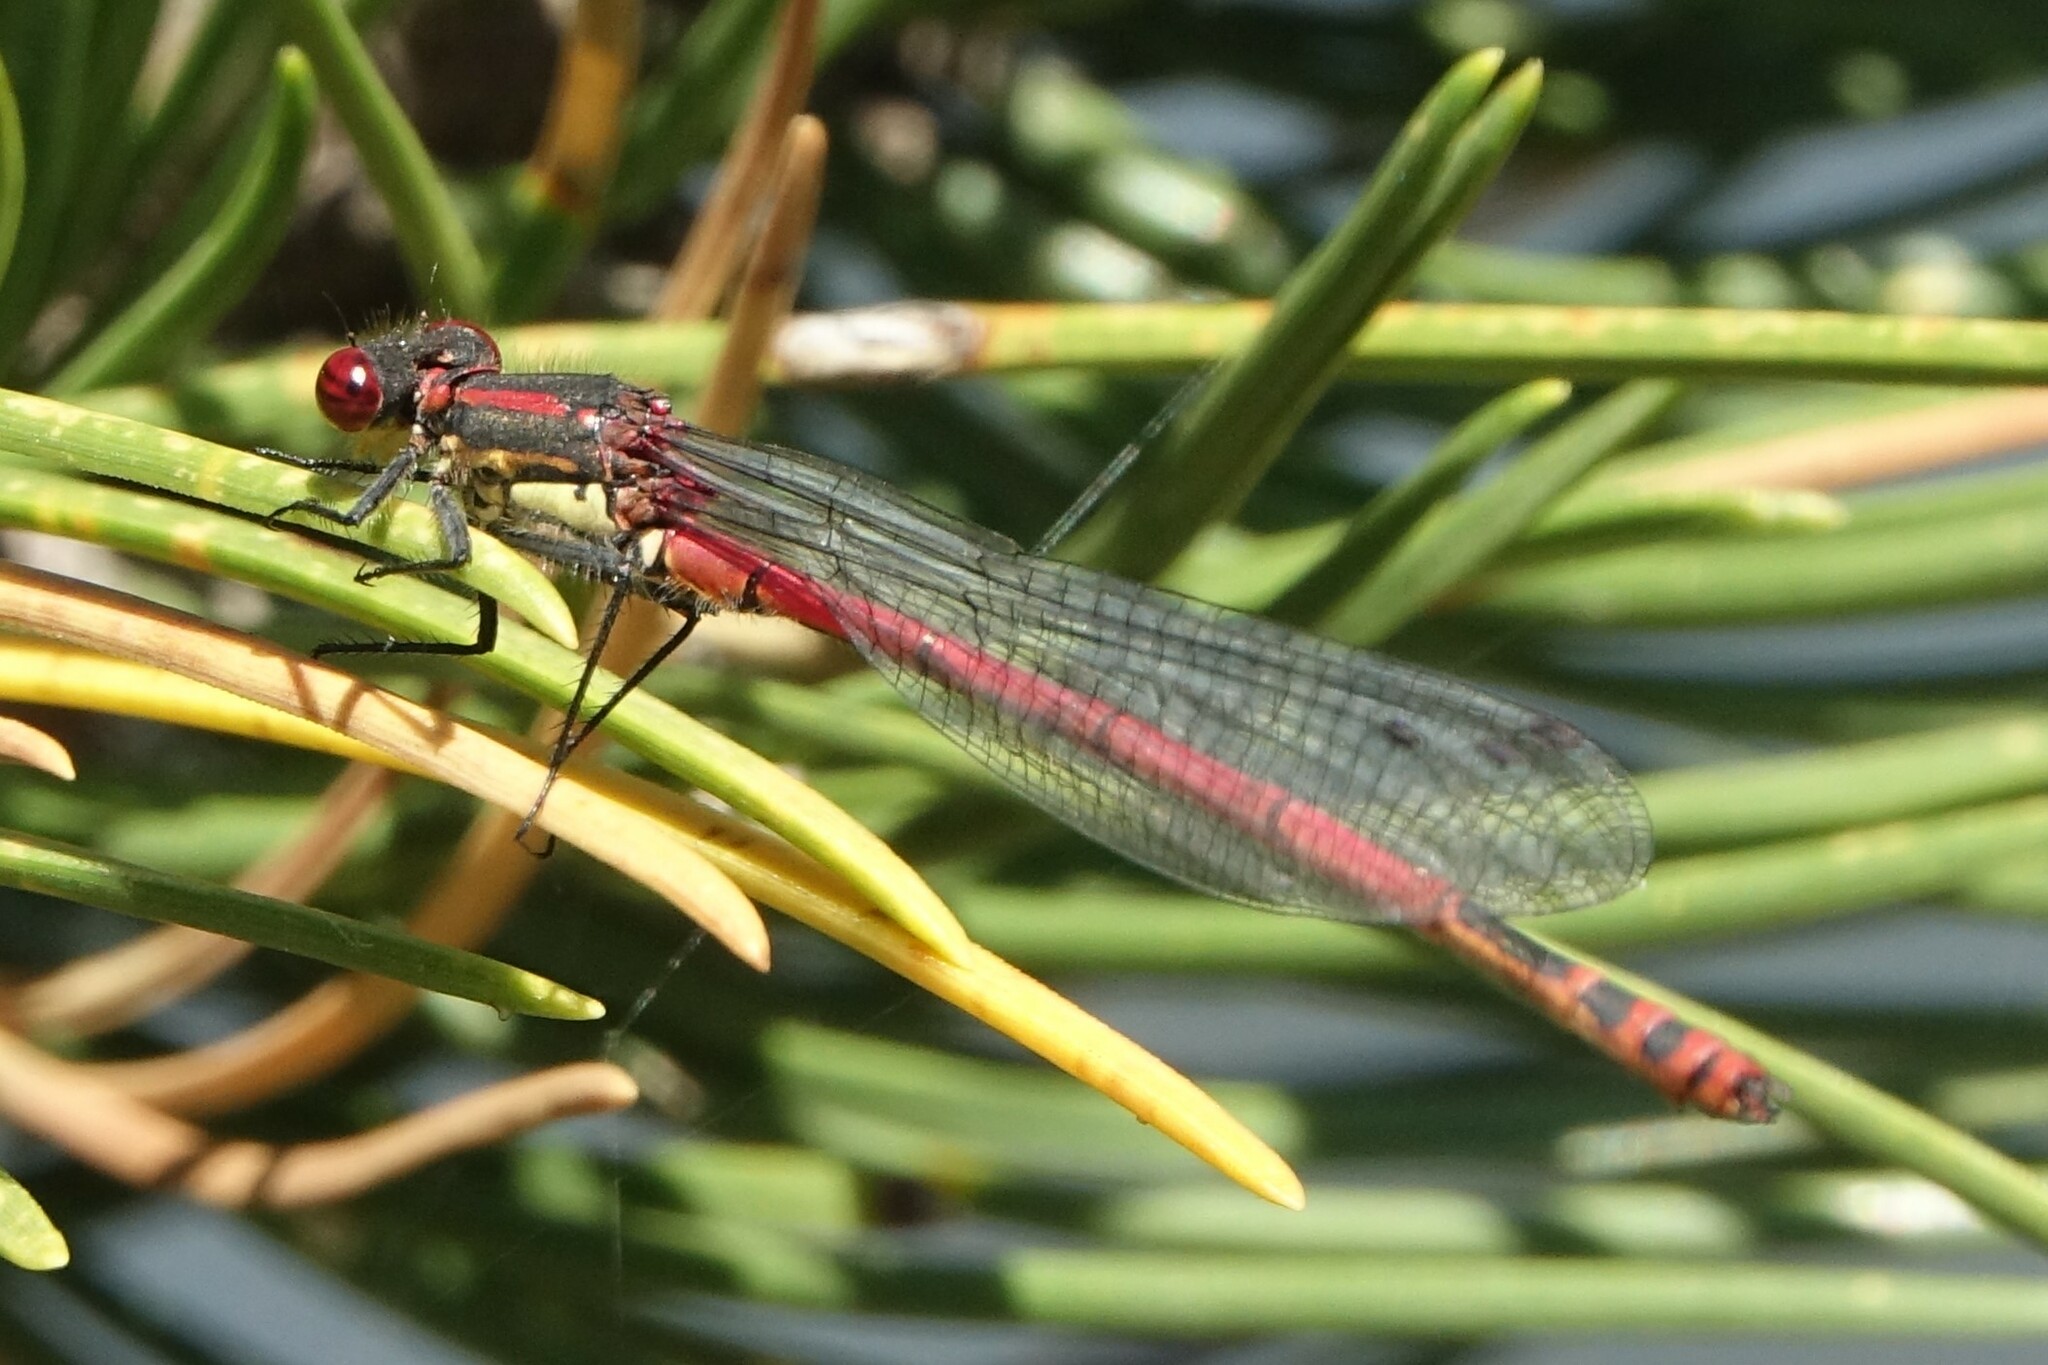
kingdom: Animalia
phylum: Arthropoda
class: Insecta
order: Odonata
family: Coenagrionidae
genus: Pyrrhosoma
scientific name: Pyrrhosoma nymphula
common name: Large red damsel
